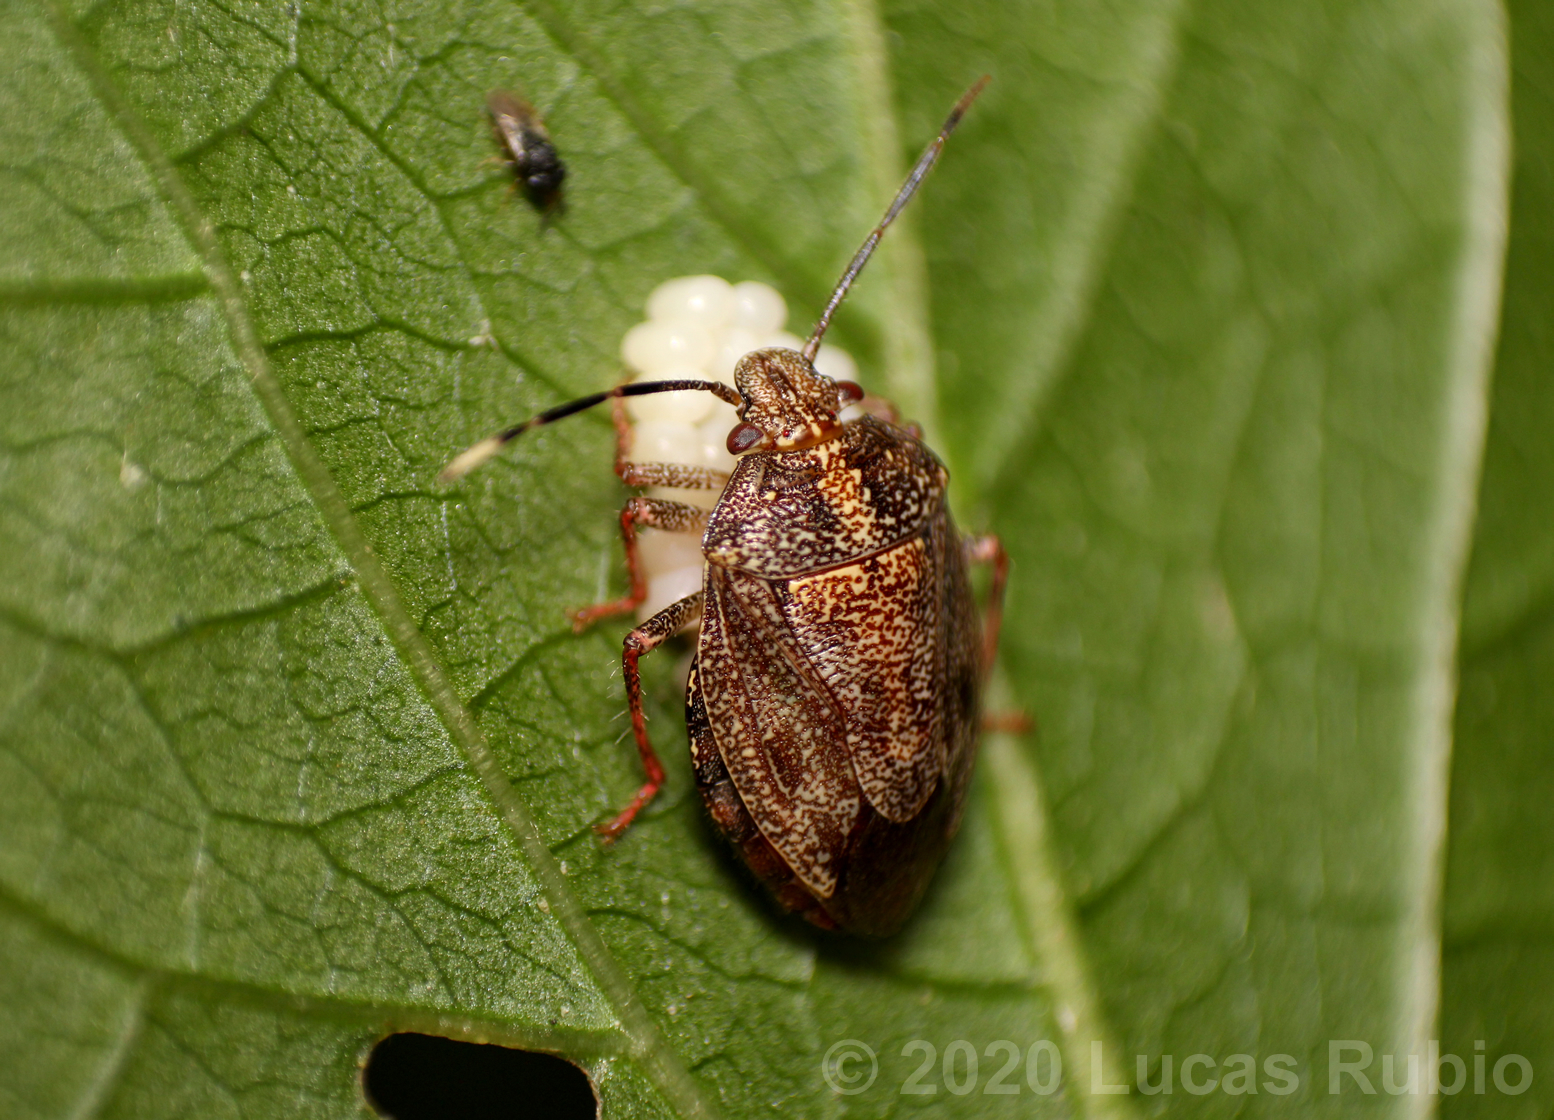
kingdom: Animalia
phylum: Arthropoda
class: Insecta
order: Hemiptera
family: Pentatomidae
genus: Antiteuchus
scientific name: Antiteuchus tripterus
